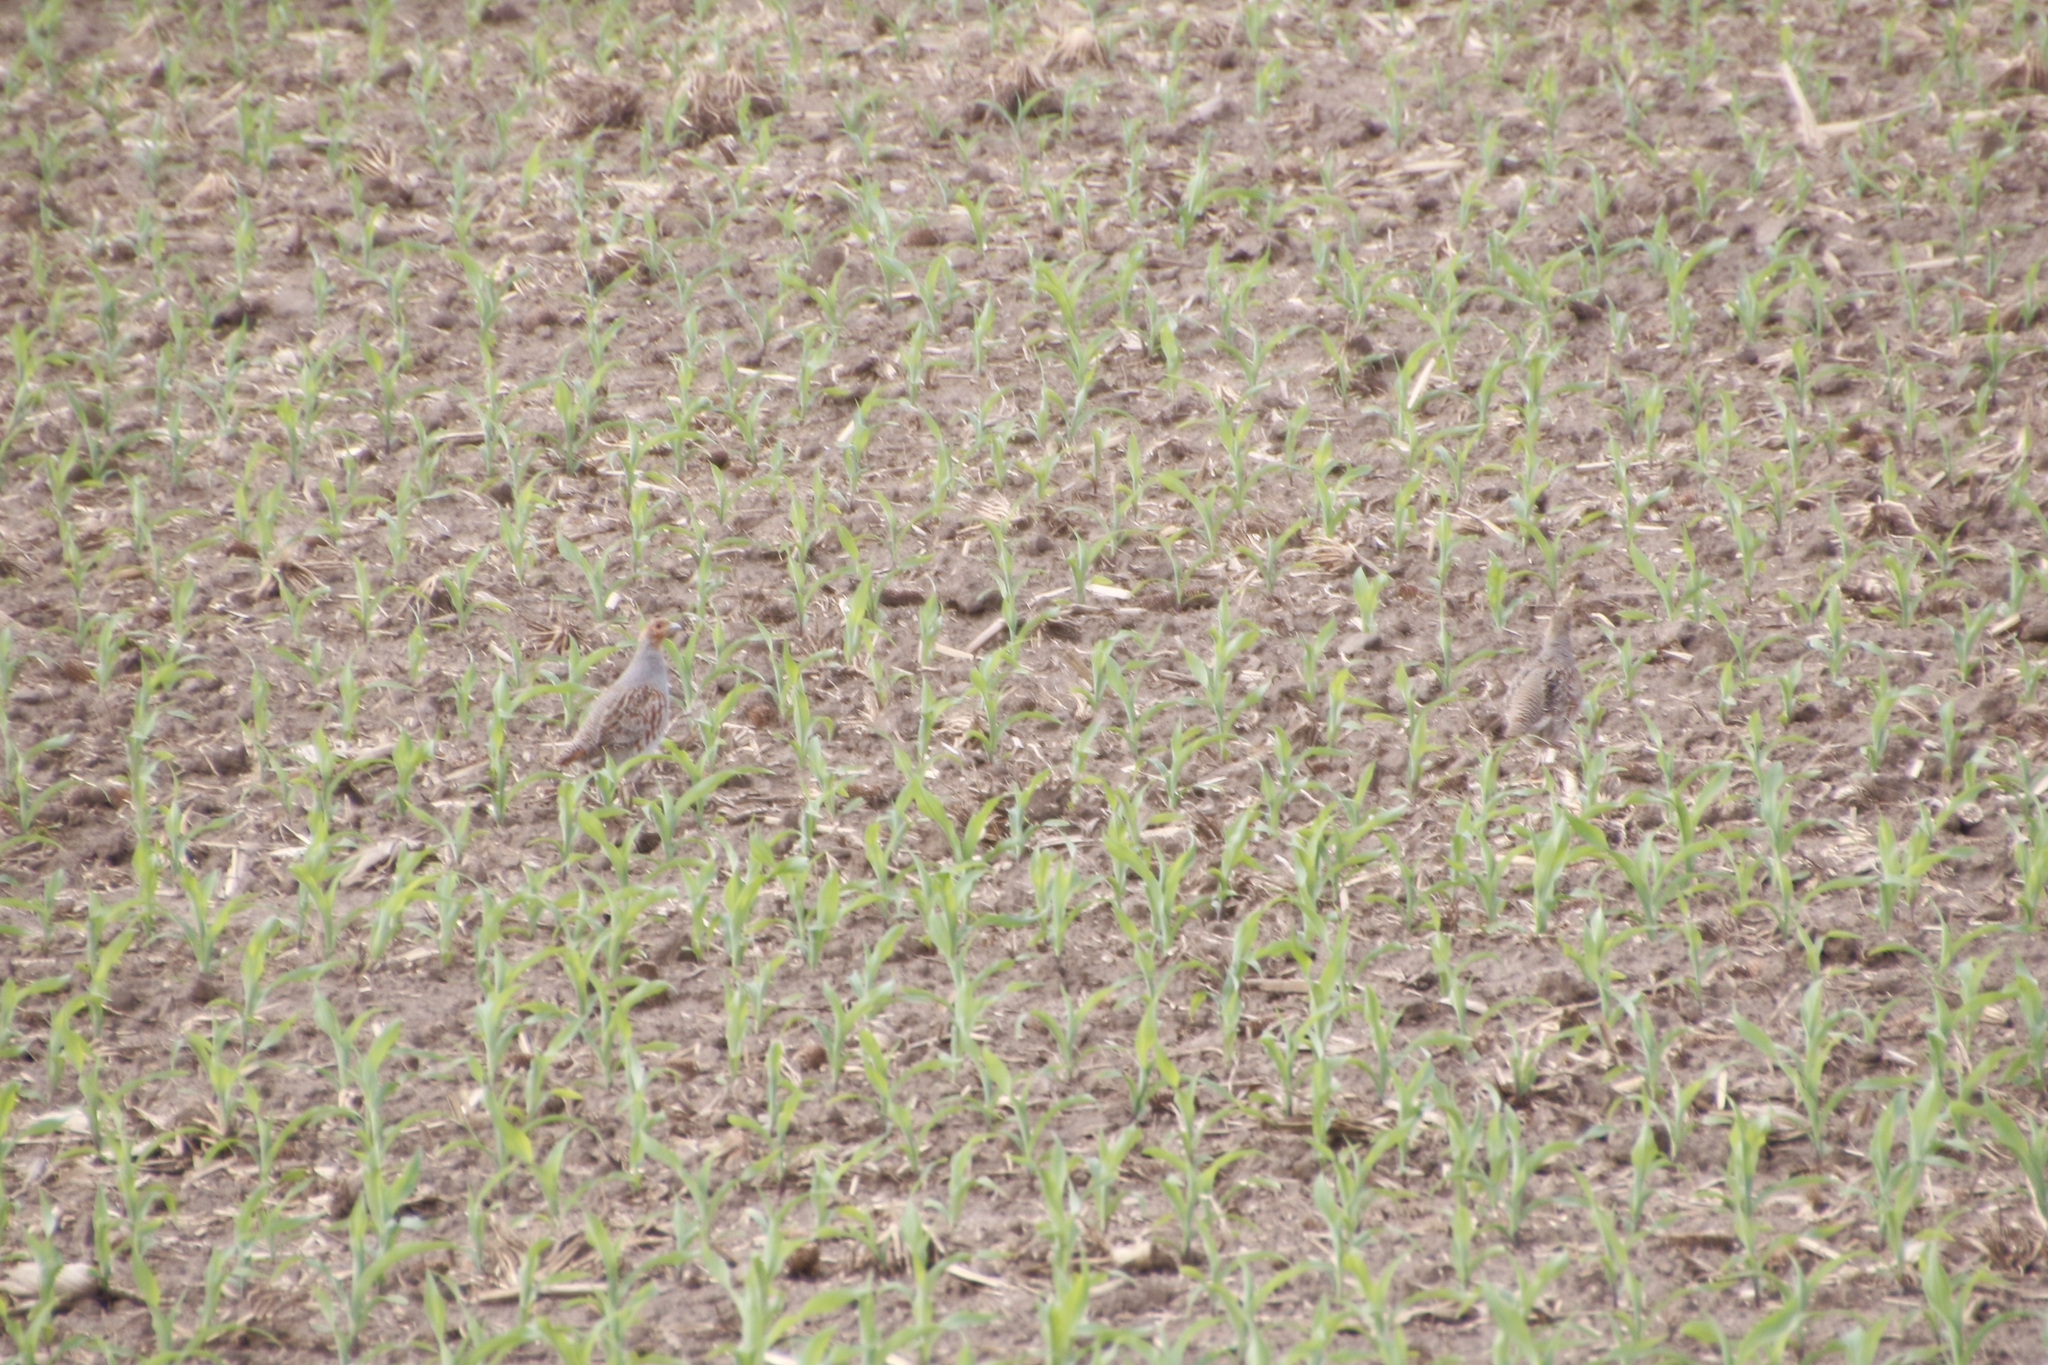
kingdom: Animalia
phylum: Chordata
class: Aves
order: Galliformes
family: Phasianidae
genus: Perdix
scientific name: Perdix perdix
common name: Grey partridge
